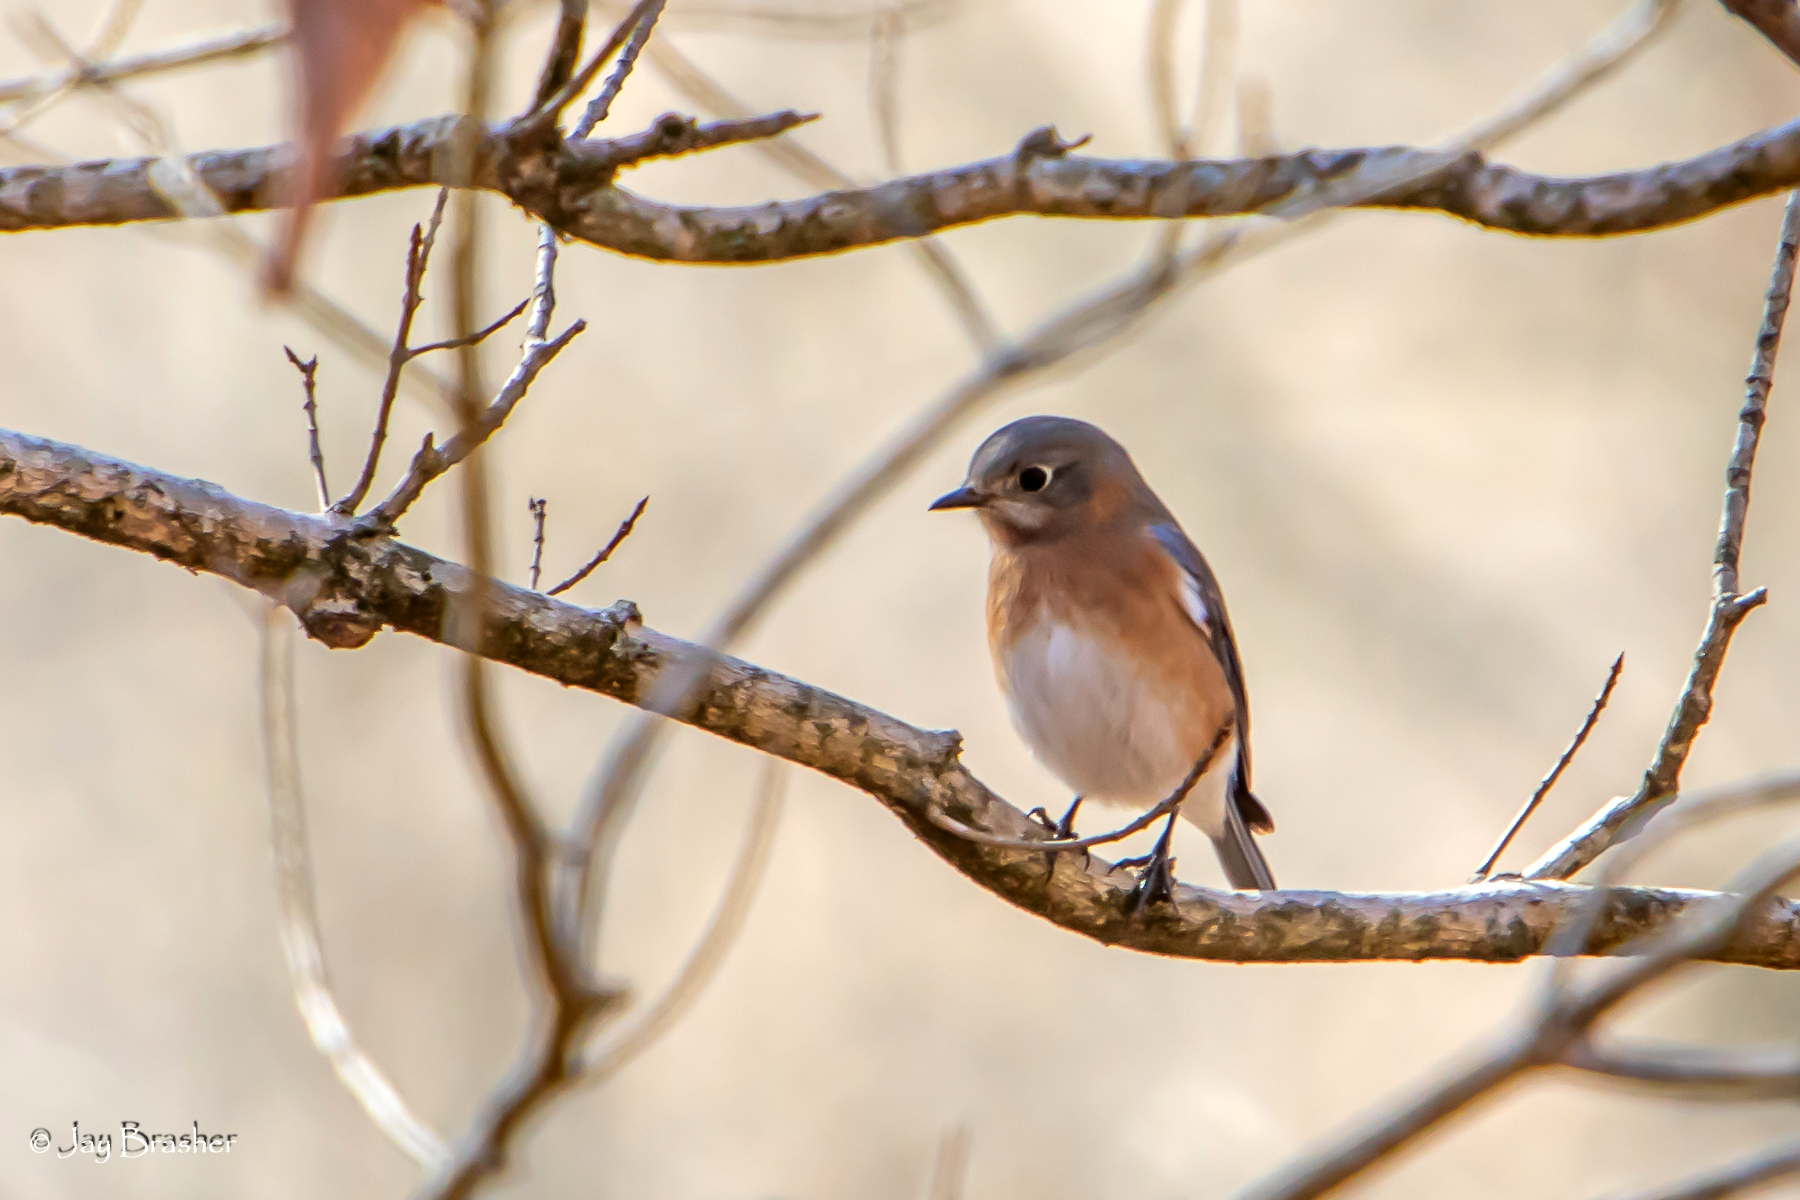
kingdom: Animalia
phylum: Chordata
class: Aves
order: Passeriformes
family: Turdidae
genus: Sialia
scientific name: Sialia sialis
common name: Eastern bluebird
